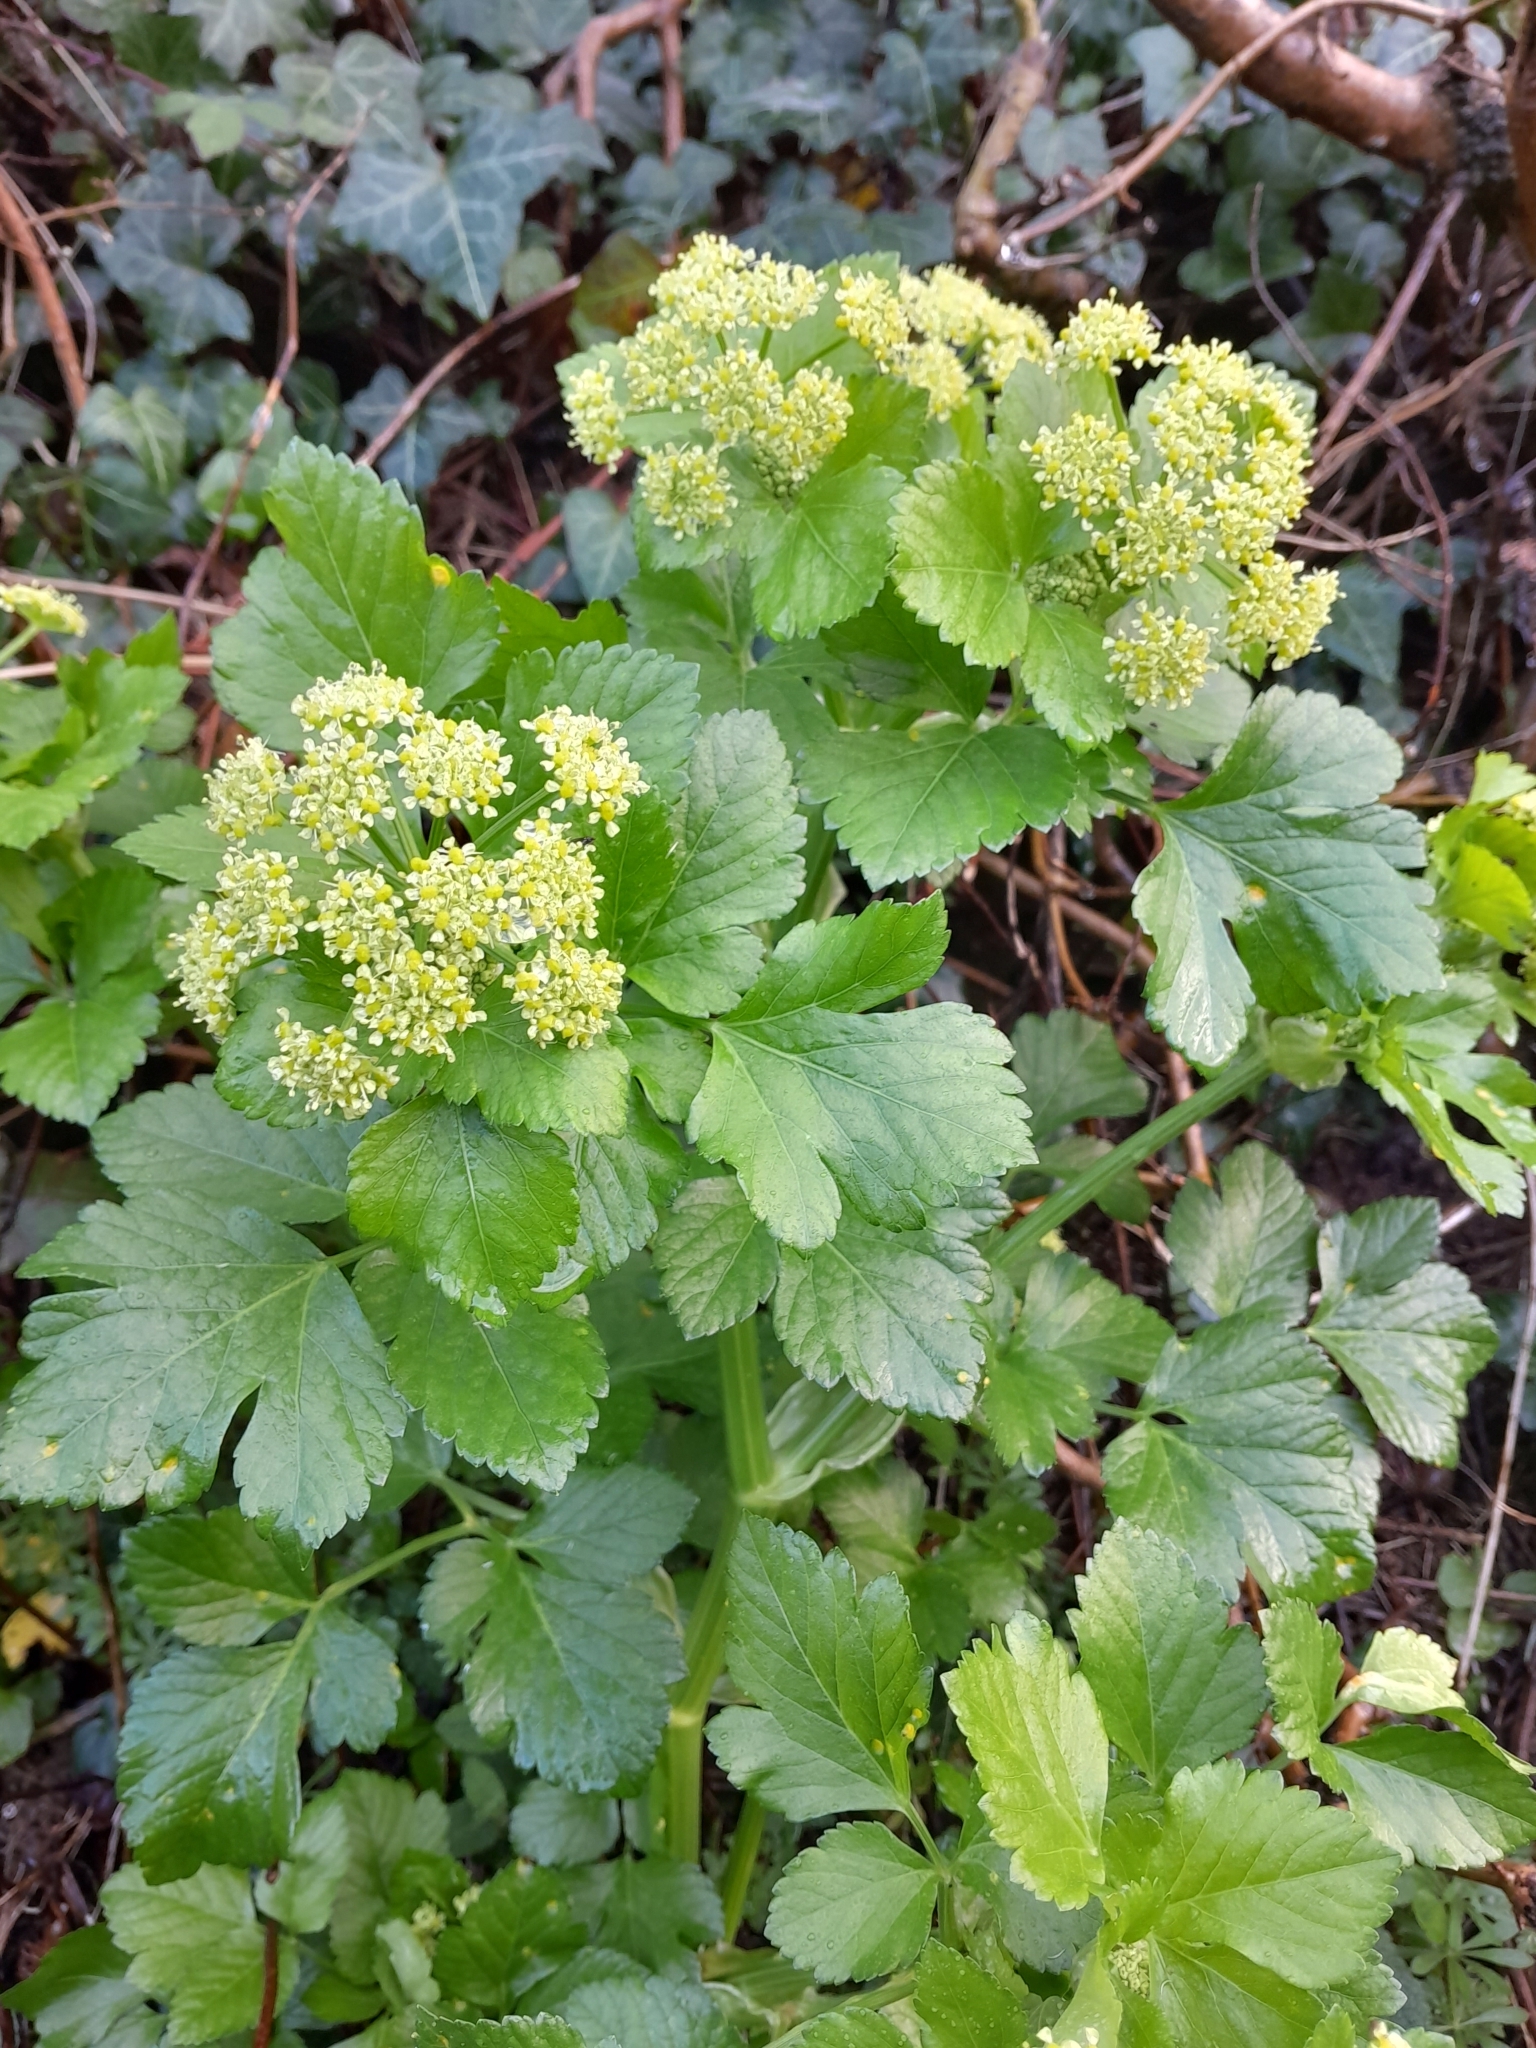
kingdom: Plantae
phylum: Tracheophyta
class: Magnoliopsida
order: Apiales
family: Apiaceae
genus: Smyrnium
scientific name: Smyrnium olusatrum
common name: Alexanders
